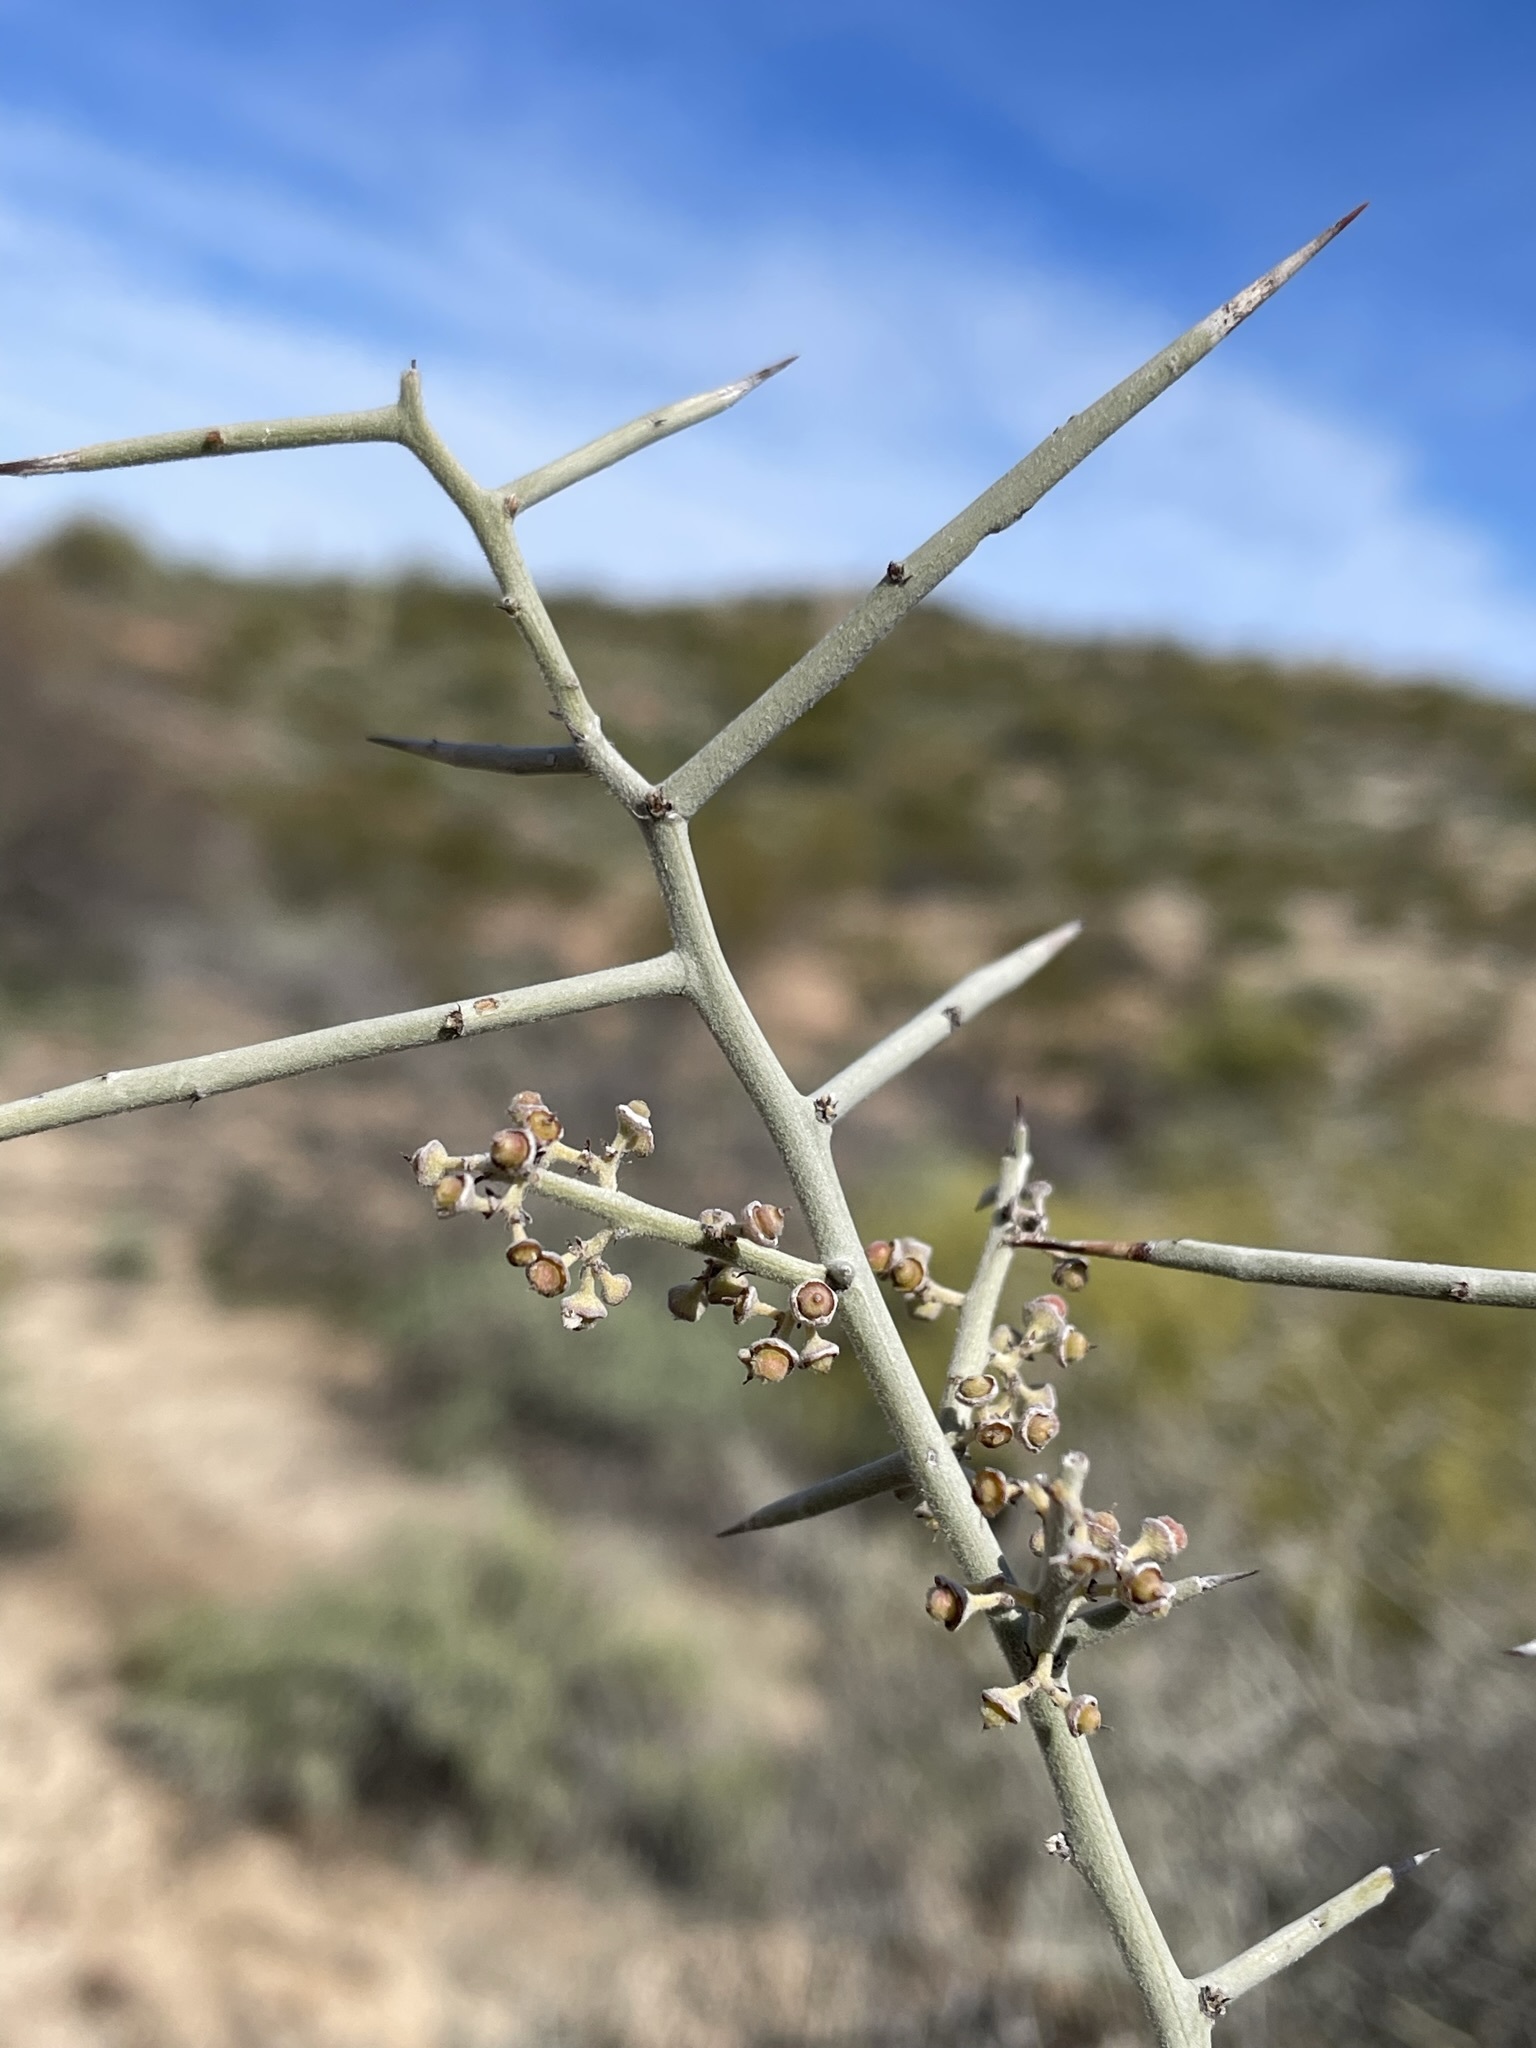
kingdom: Plantae
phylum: Tracheophyta
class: Magnoliopsida
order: Rosales
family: Rhamnaceae
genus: Sarcomphalus
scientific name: Sarcomphalus obtusifolius
